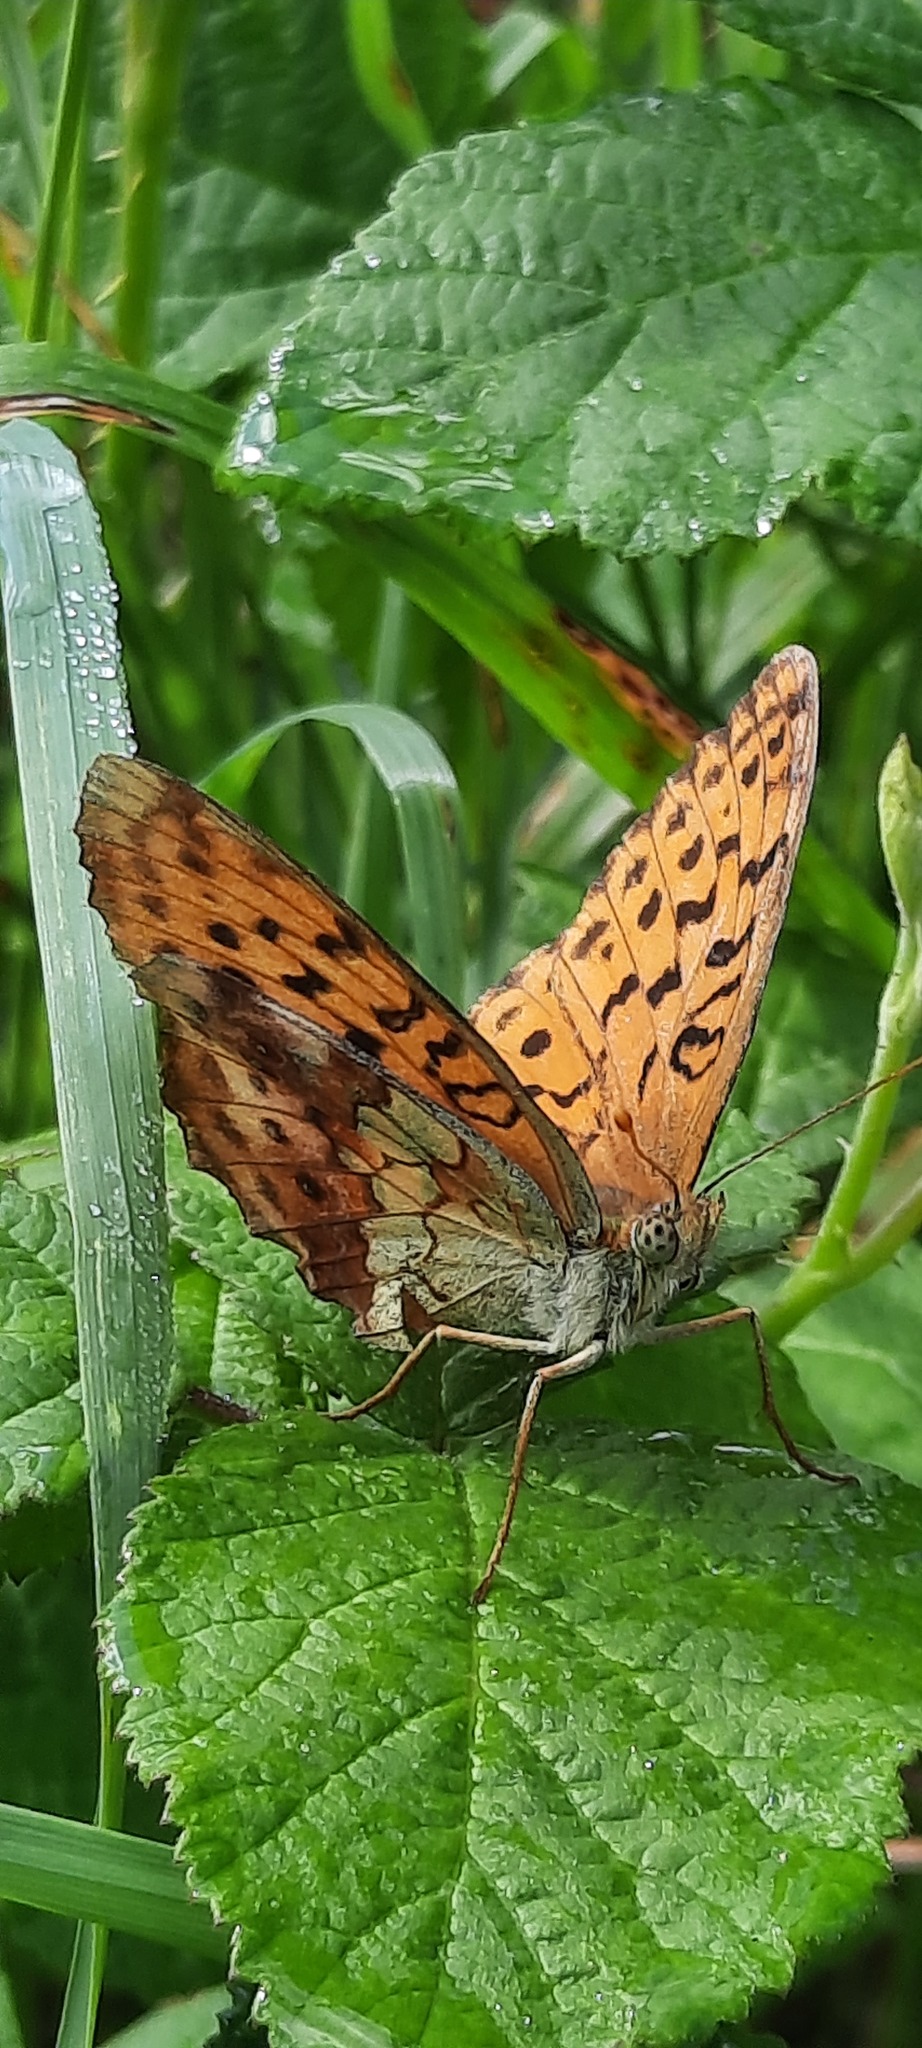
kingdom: Animalia
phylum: Arthropoda
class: Insecta
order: Lepidoptera
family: Nymphalidae
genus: Brenthis
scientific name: Brenthis daphne
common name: Marbled fritillary
